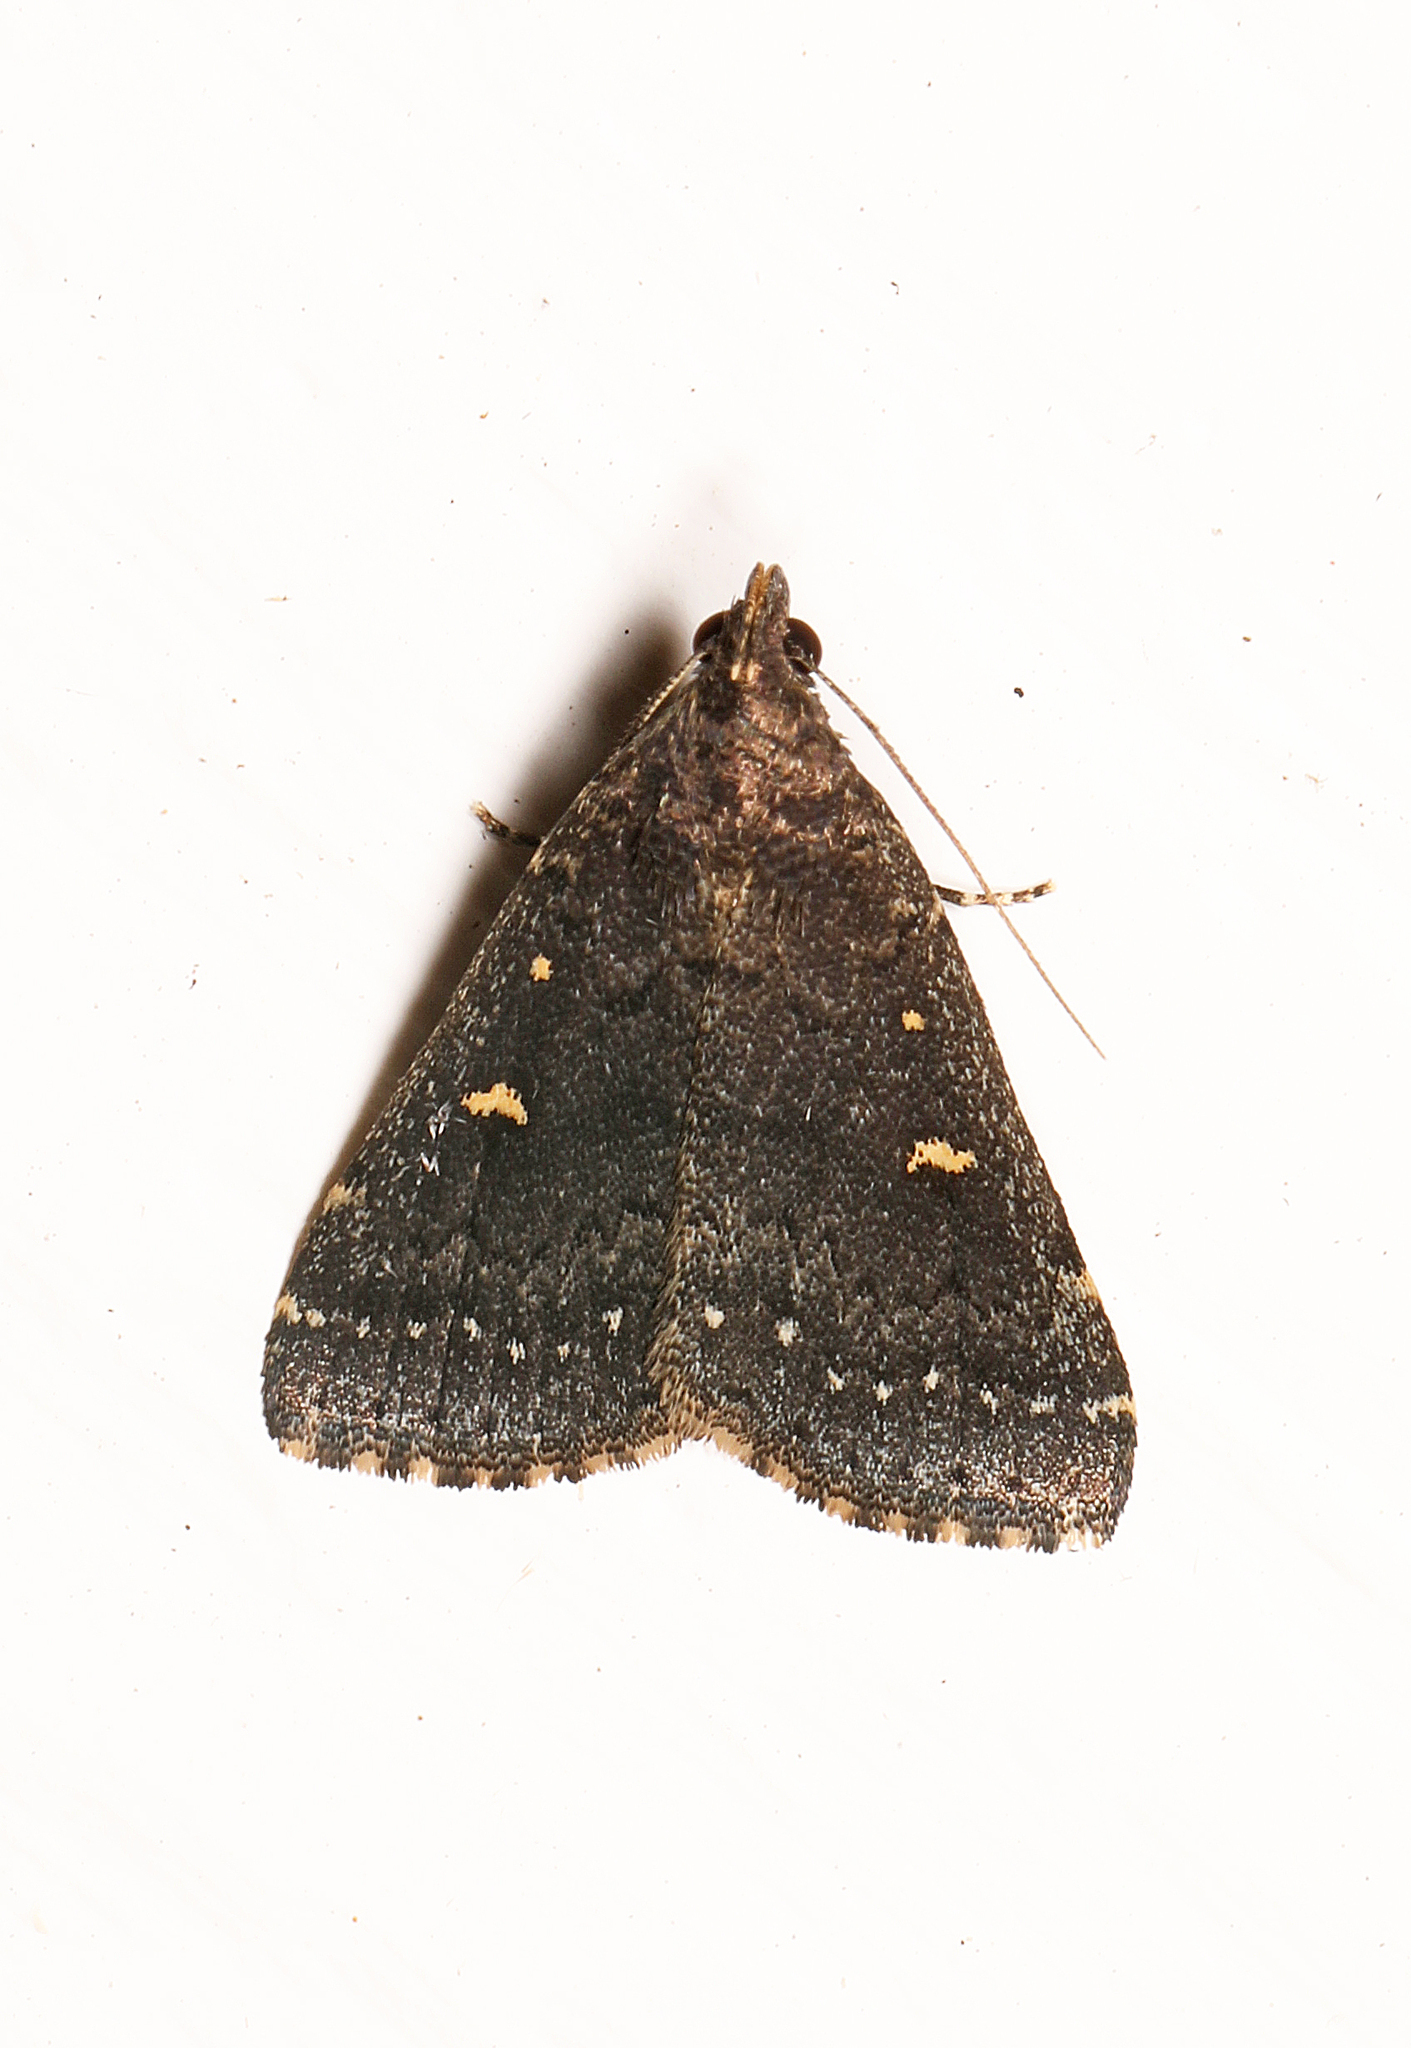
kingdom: Animalia
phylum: Arthropoda
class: Insecta
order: Lepidoptera
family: Erebidae
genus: Tetanolita
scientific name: Tetanolita mynesalis
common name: Smoky tetanolita moth
